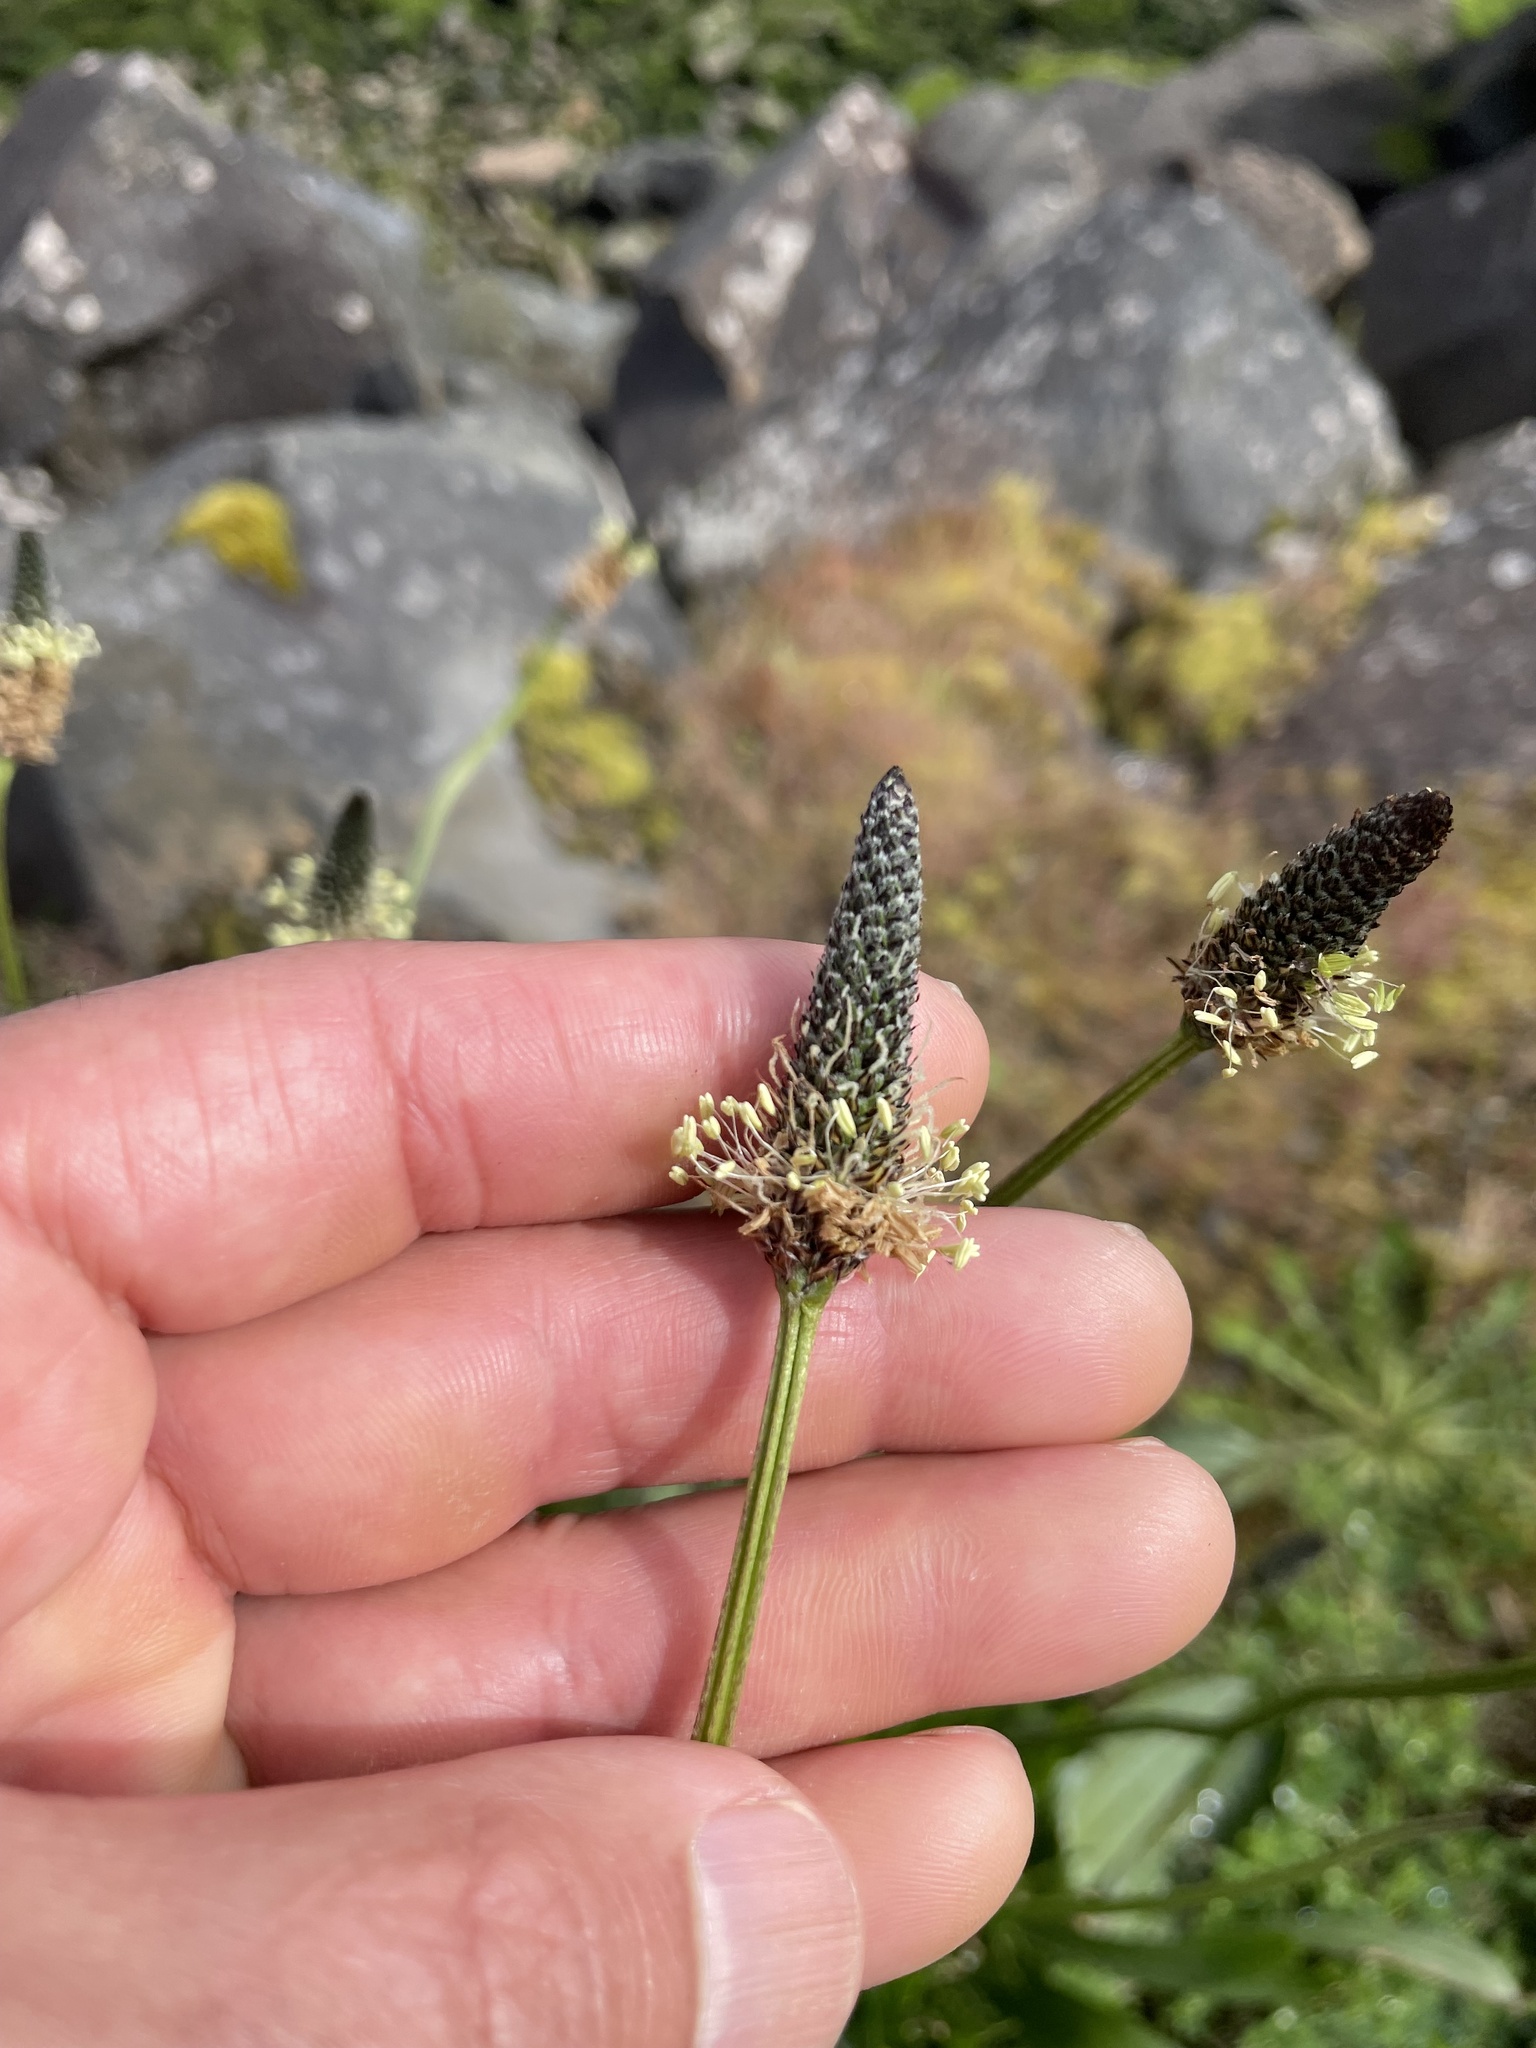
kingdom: Plantae
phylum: Tracheophyta
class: Magnoliopsida
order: Lamiales
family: Plantaginaceae
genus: Plantago
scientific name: Plantago lanceolata
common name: Ribwort plantain
